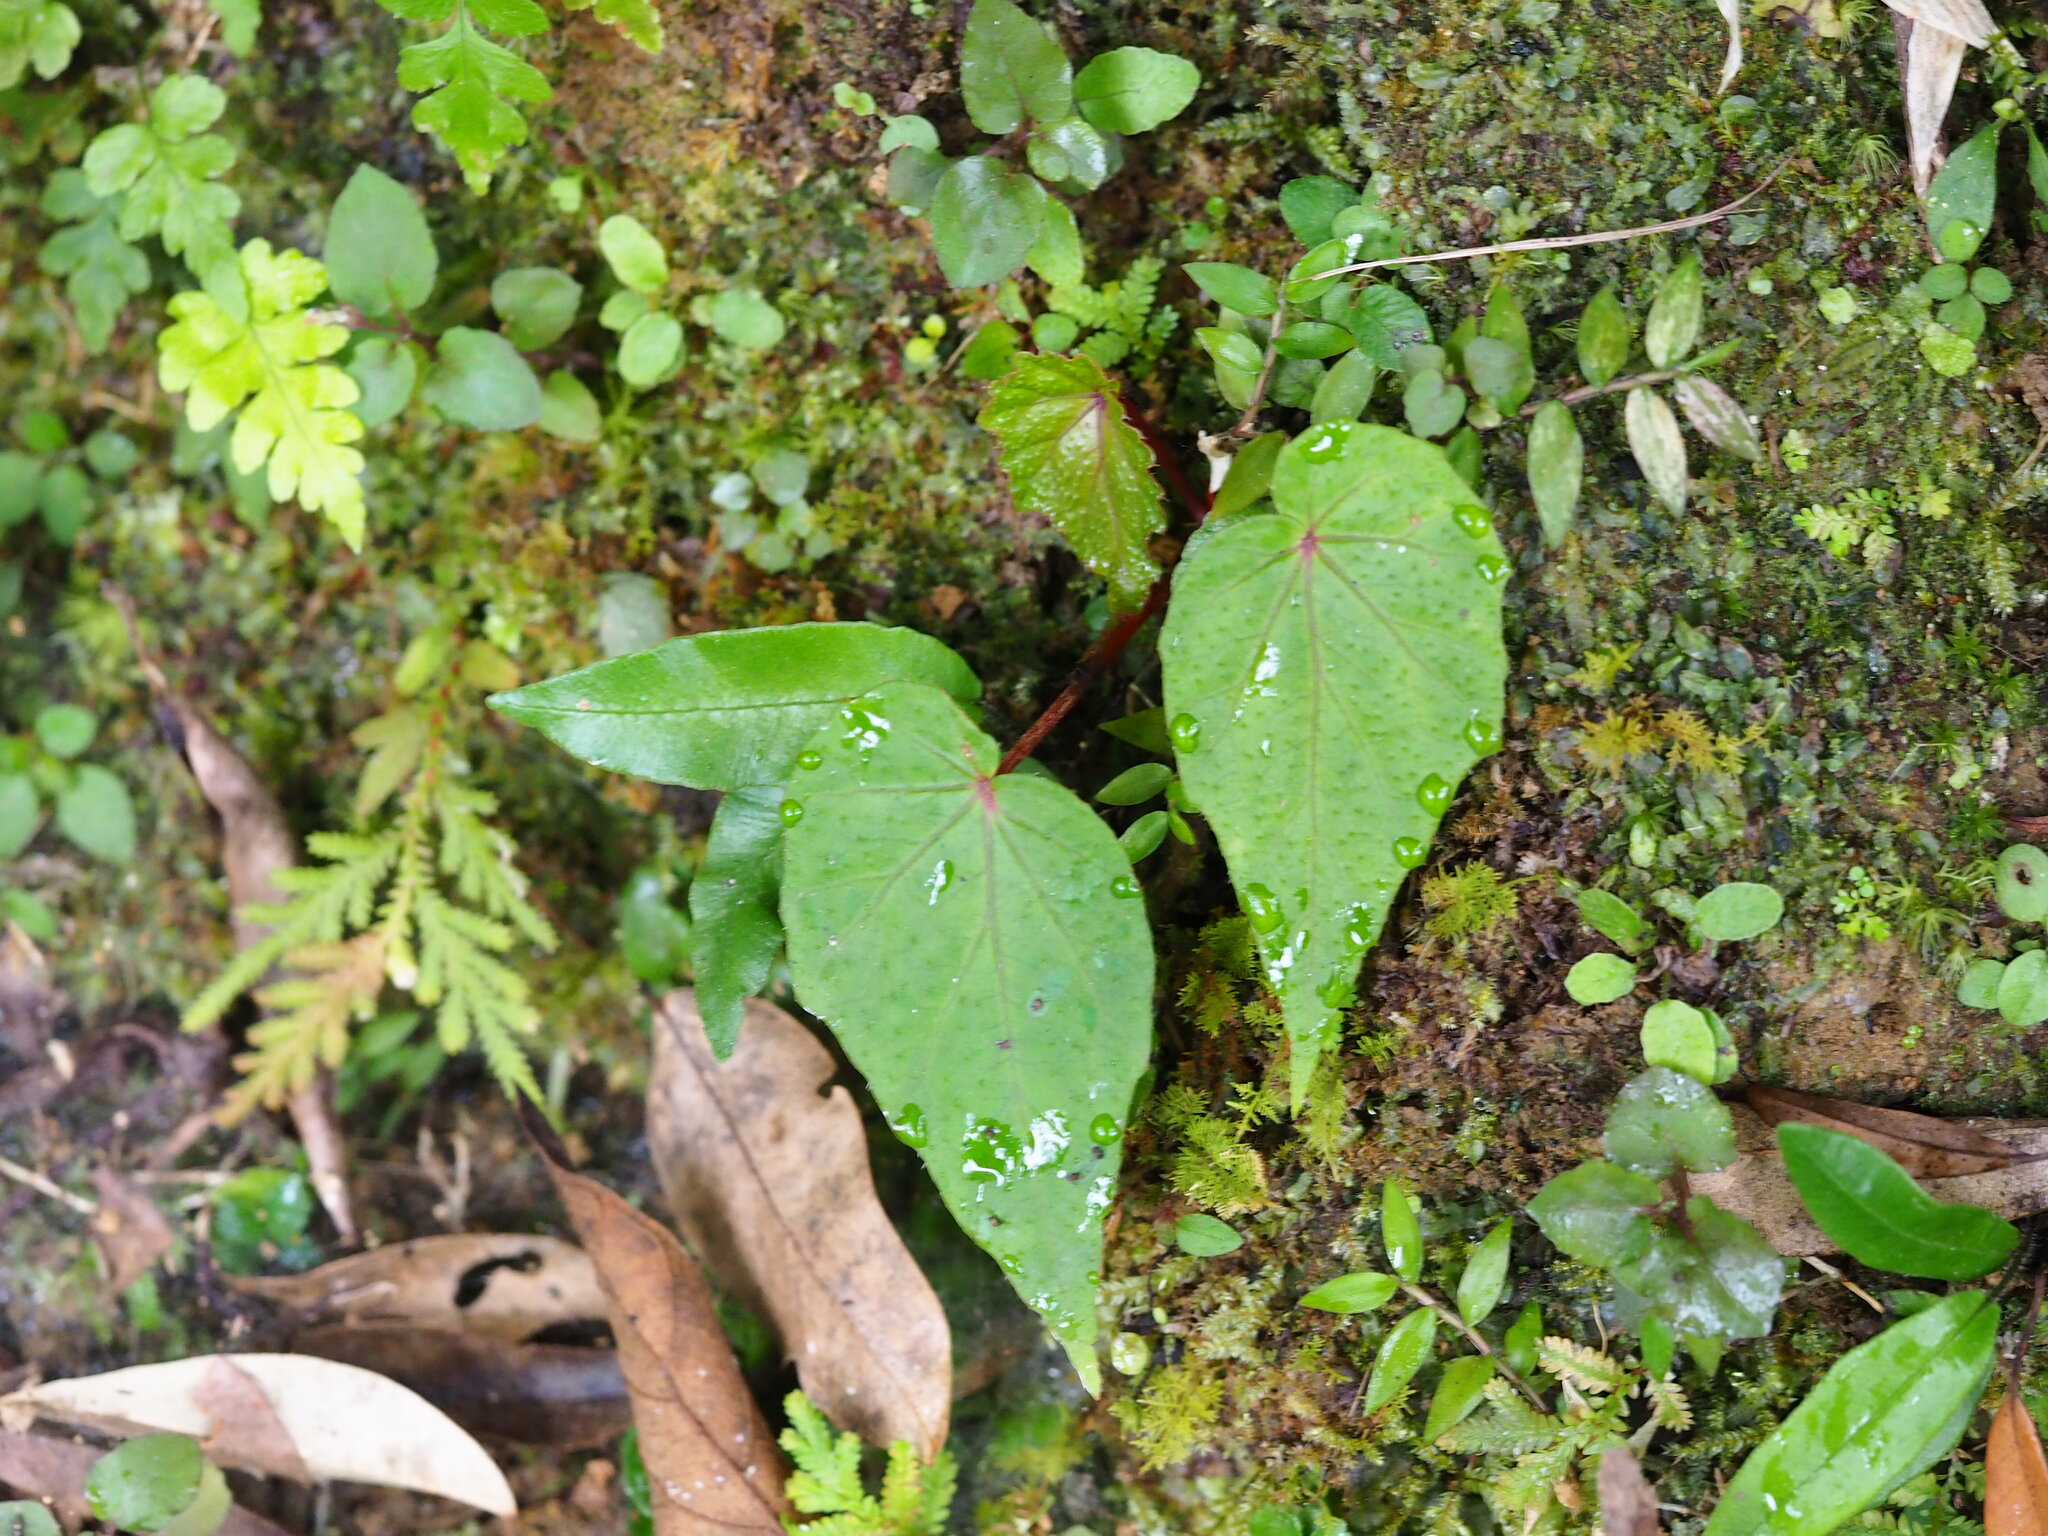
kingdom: Plantae
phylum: Tracheophyta
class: Magnoliopsida
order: Cucurbitales
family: Begoniaceae
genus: Begonia
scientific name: Begonia formosana
